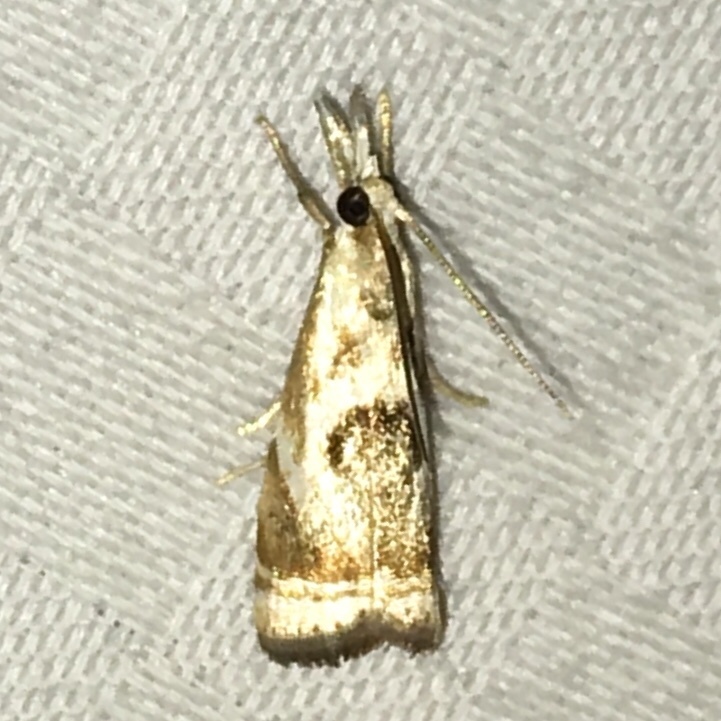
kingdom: Animalia
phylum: Arthropoda
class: Insecta
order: Lepidoptera
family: Crambidae
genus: Microcrambus
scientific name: Microcrambus elegans
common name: Elegant grass-veneer
